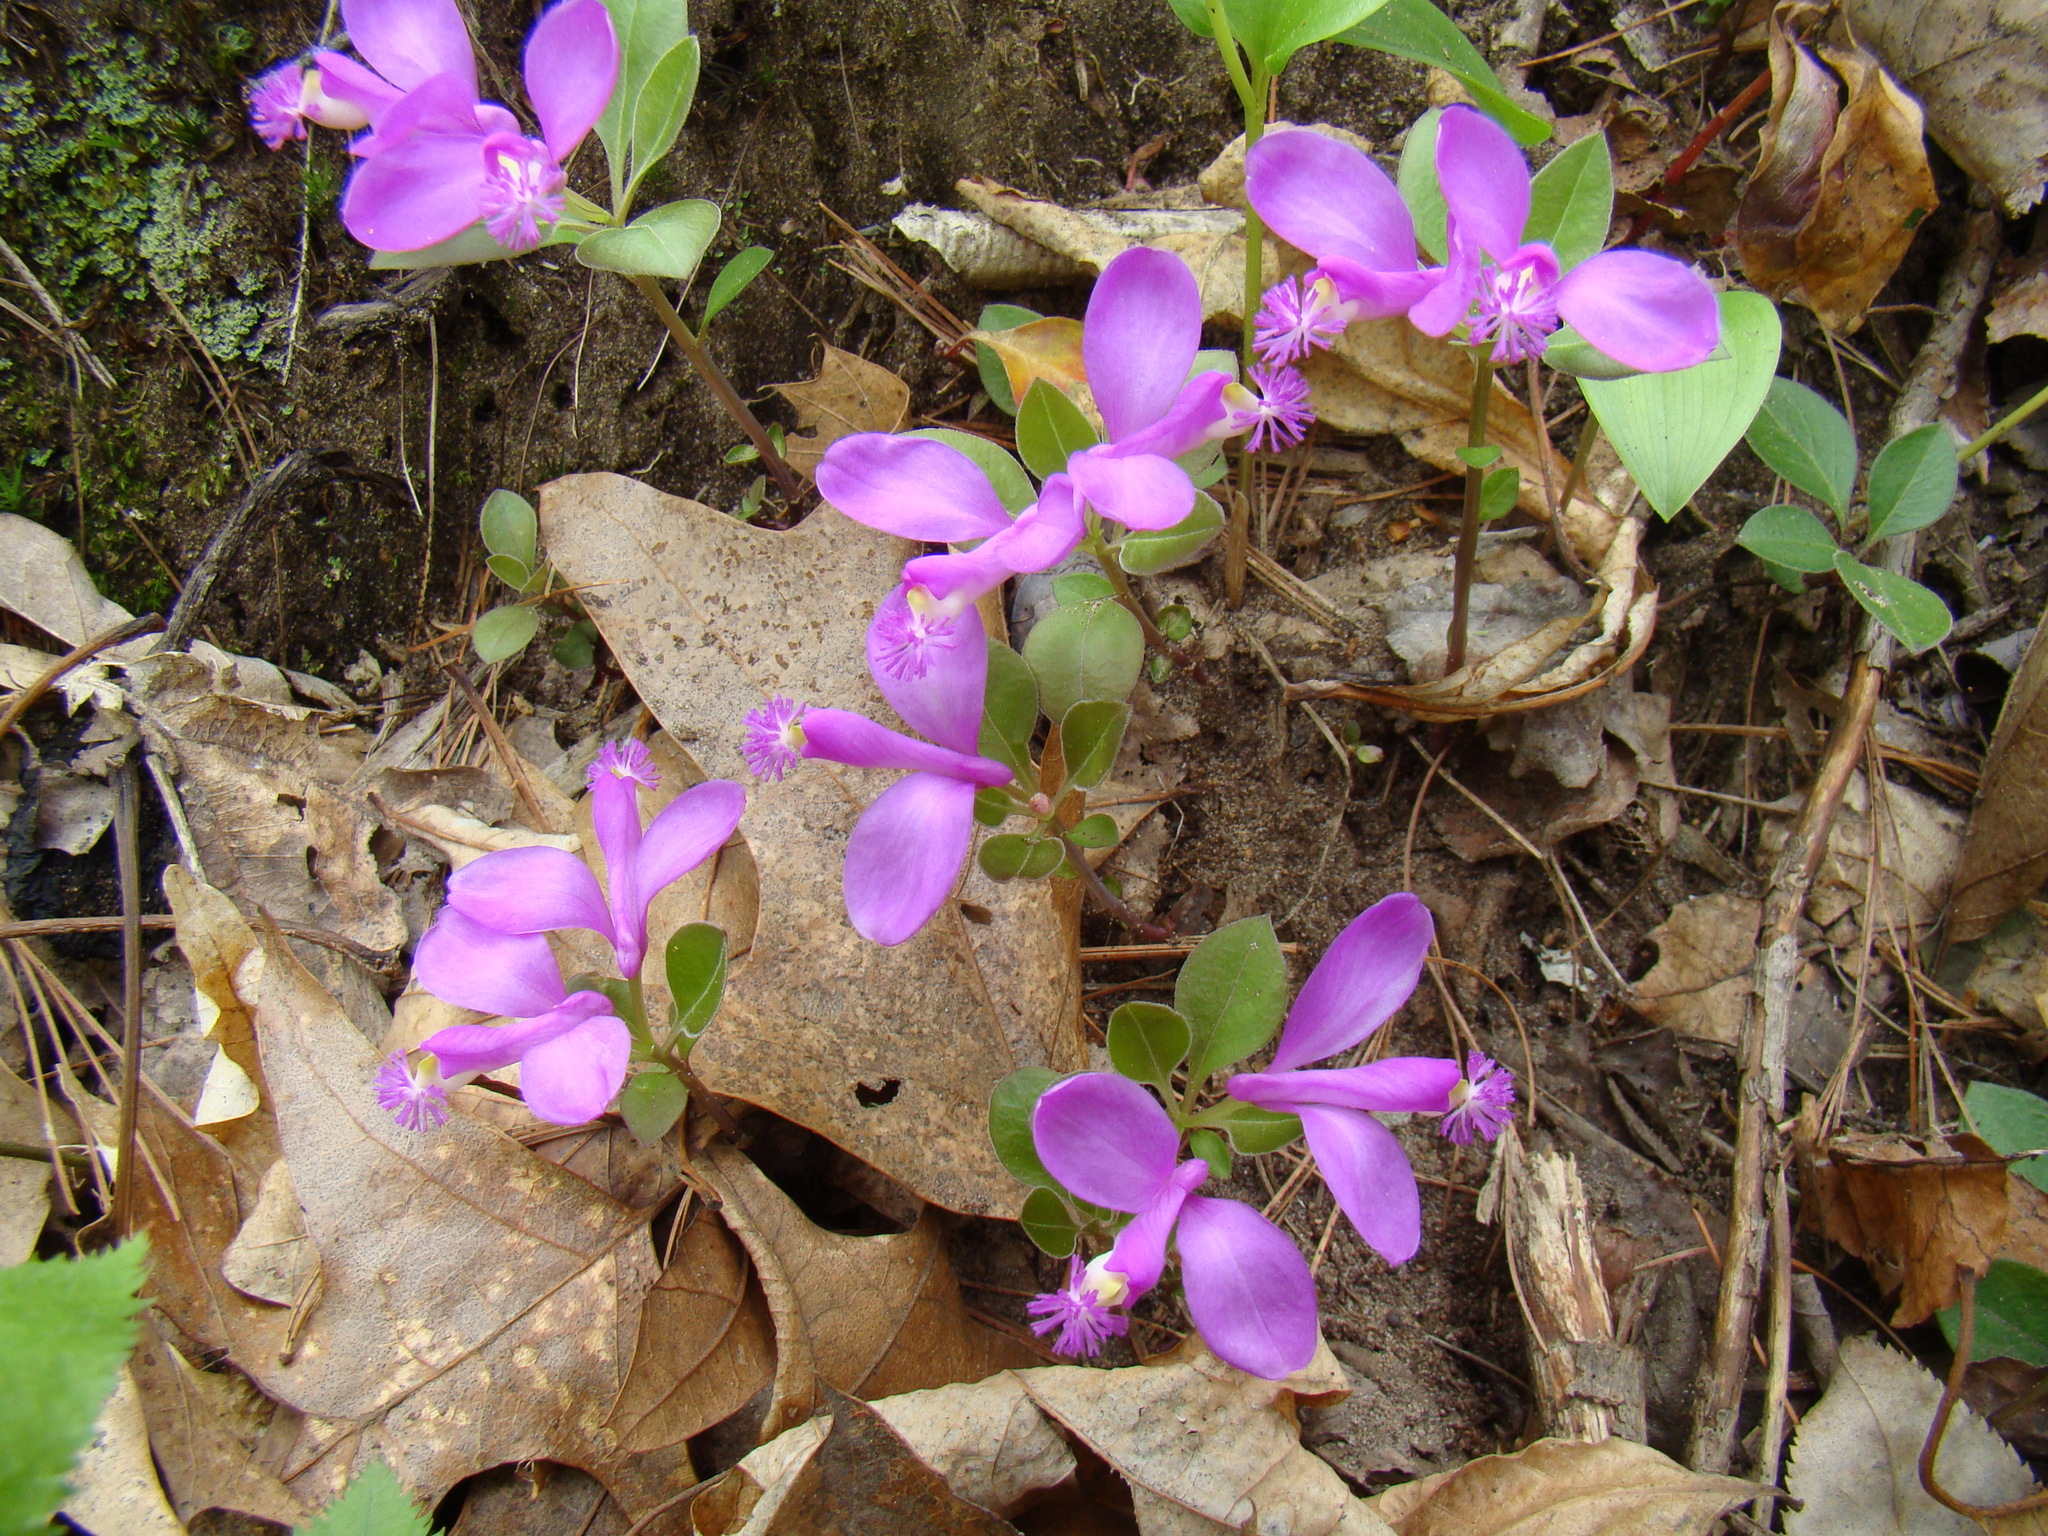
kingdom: Plantae
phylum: Tracheophyta
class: Magnoliopsida
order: Fabales
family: Polygalaceae
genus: Polygaloides
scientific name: Polygaloides paucifolia
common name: Bird-on-the-wing
